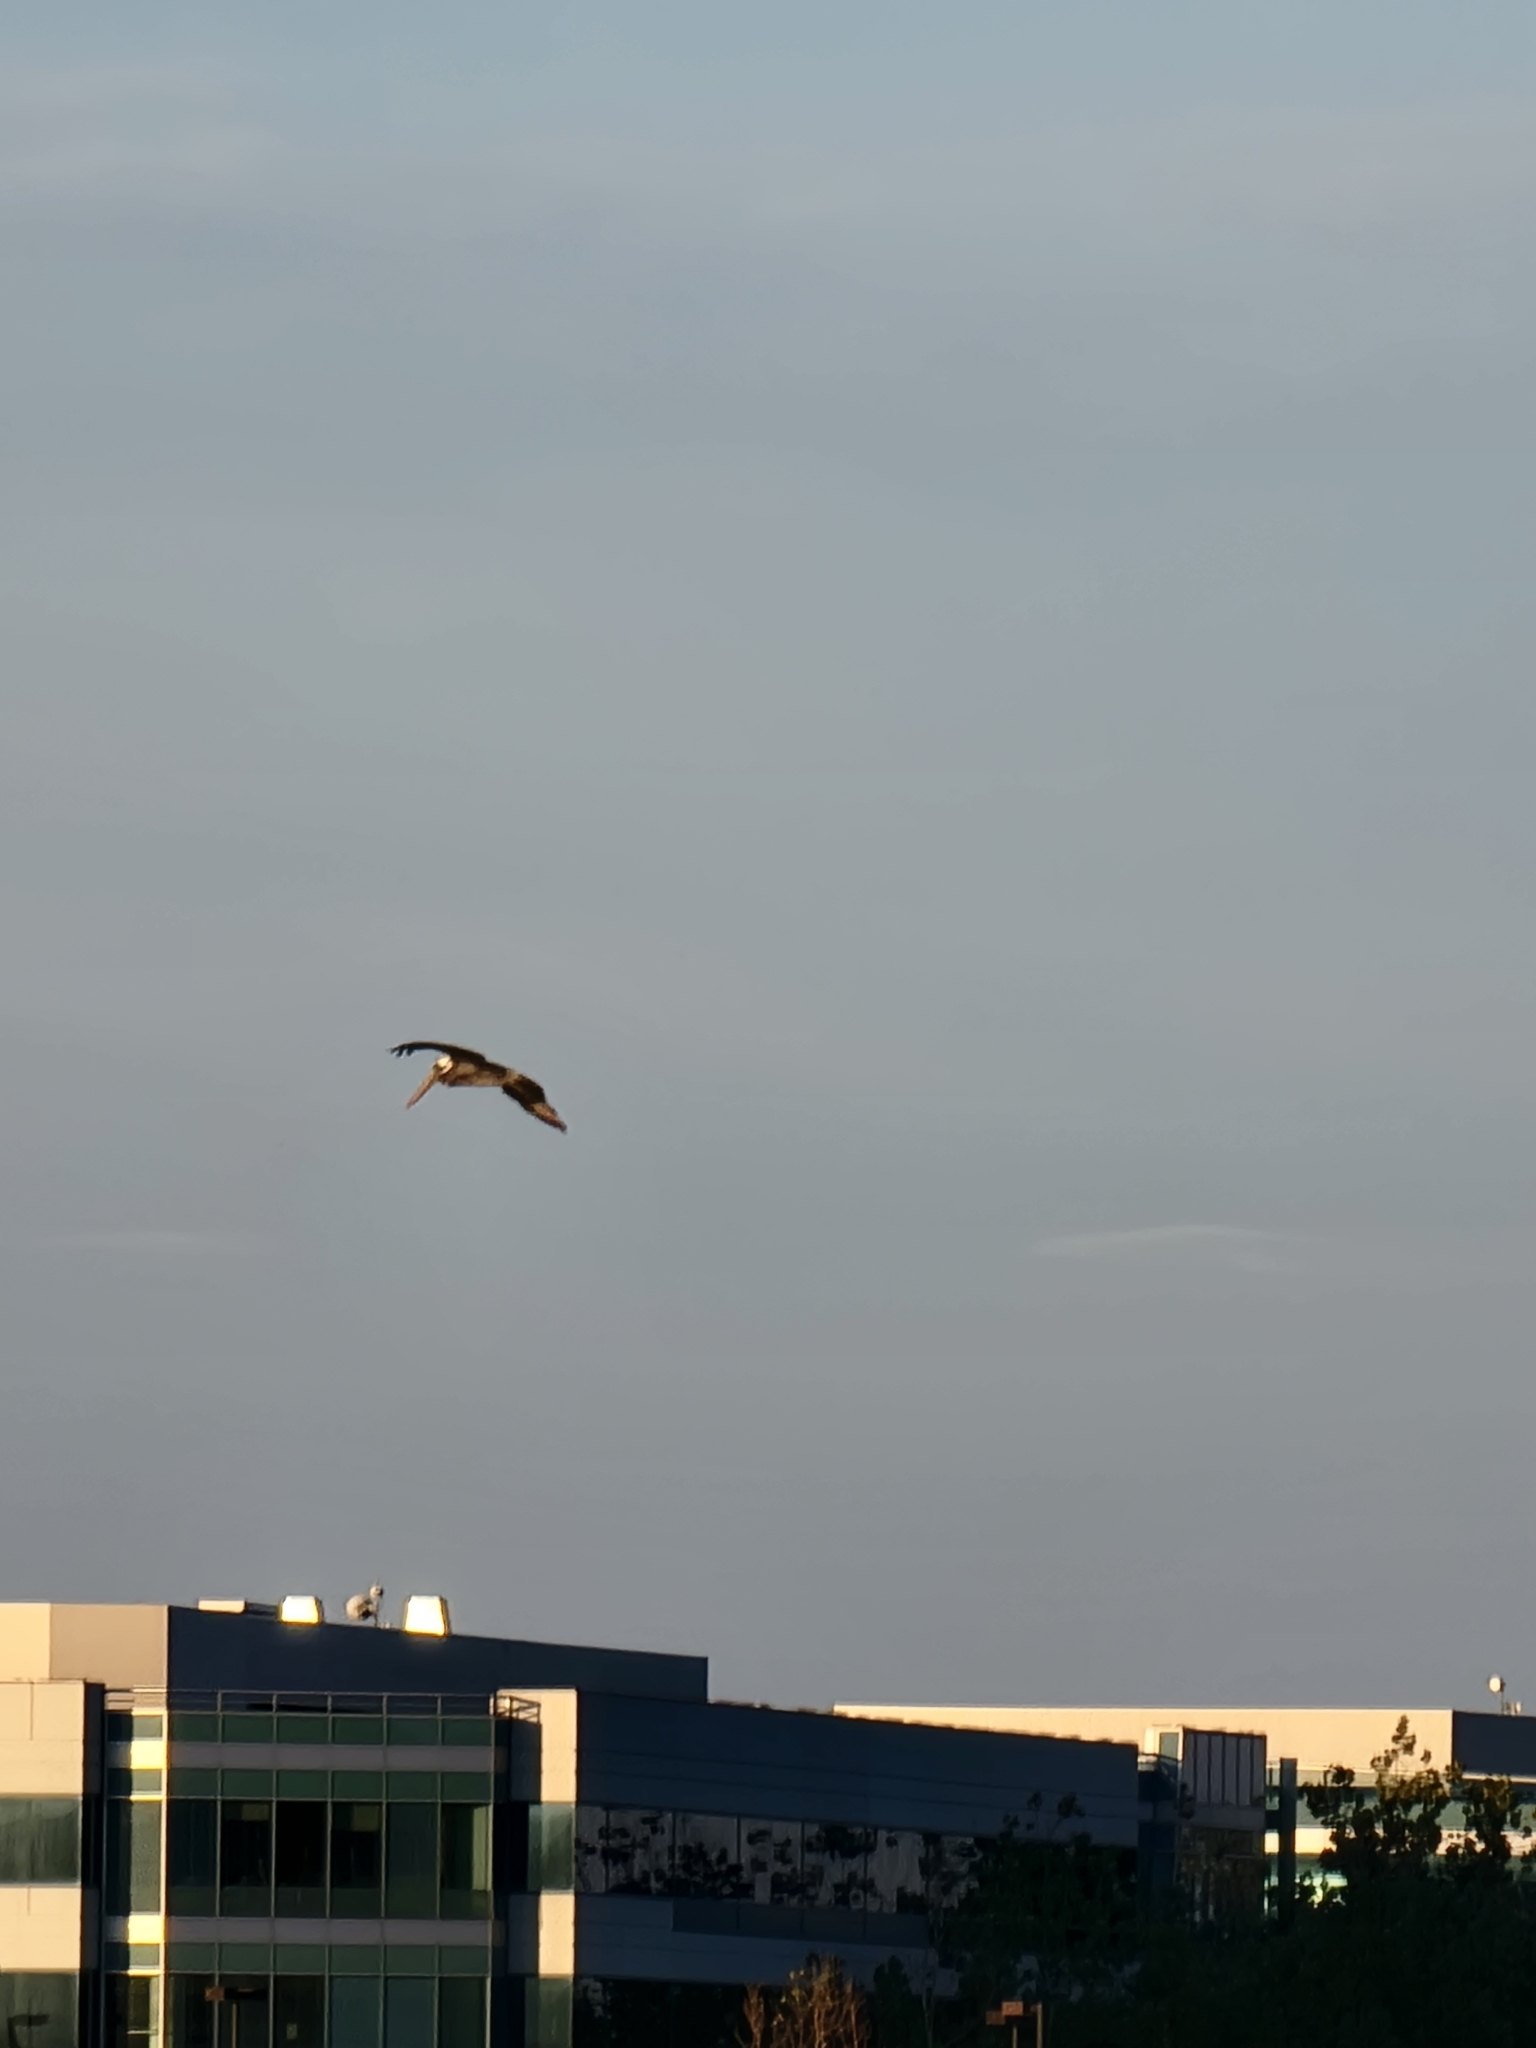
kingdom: Animalia
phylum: Chordata
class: Aves
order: Pelecaniformes
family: Pelecanidae
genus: Pelecanus
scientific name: Pelecanus occidentalis
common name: Brown pelican
